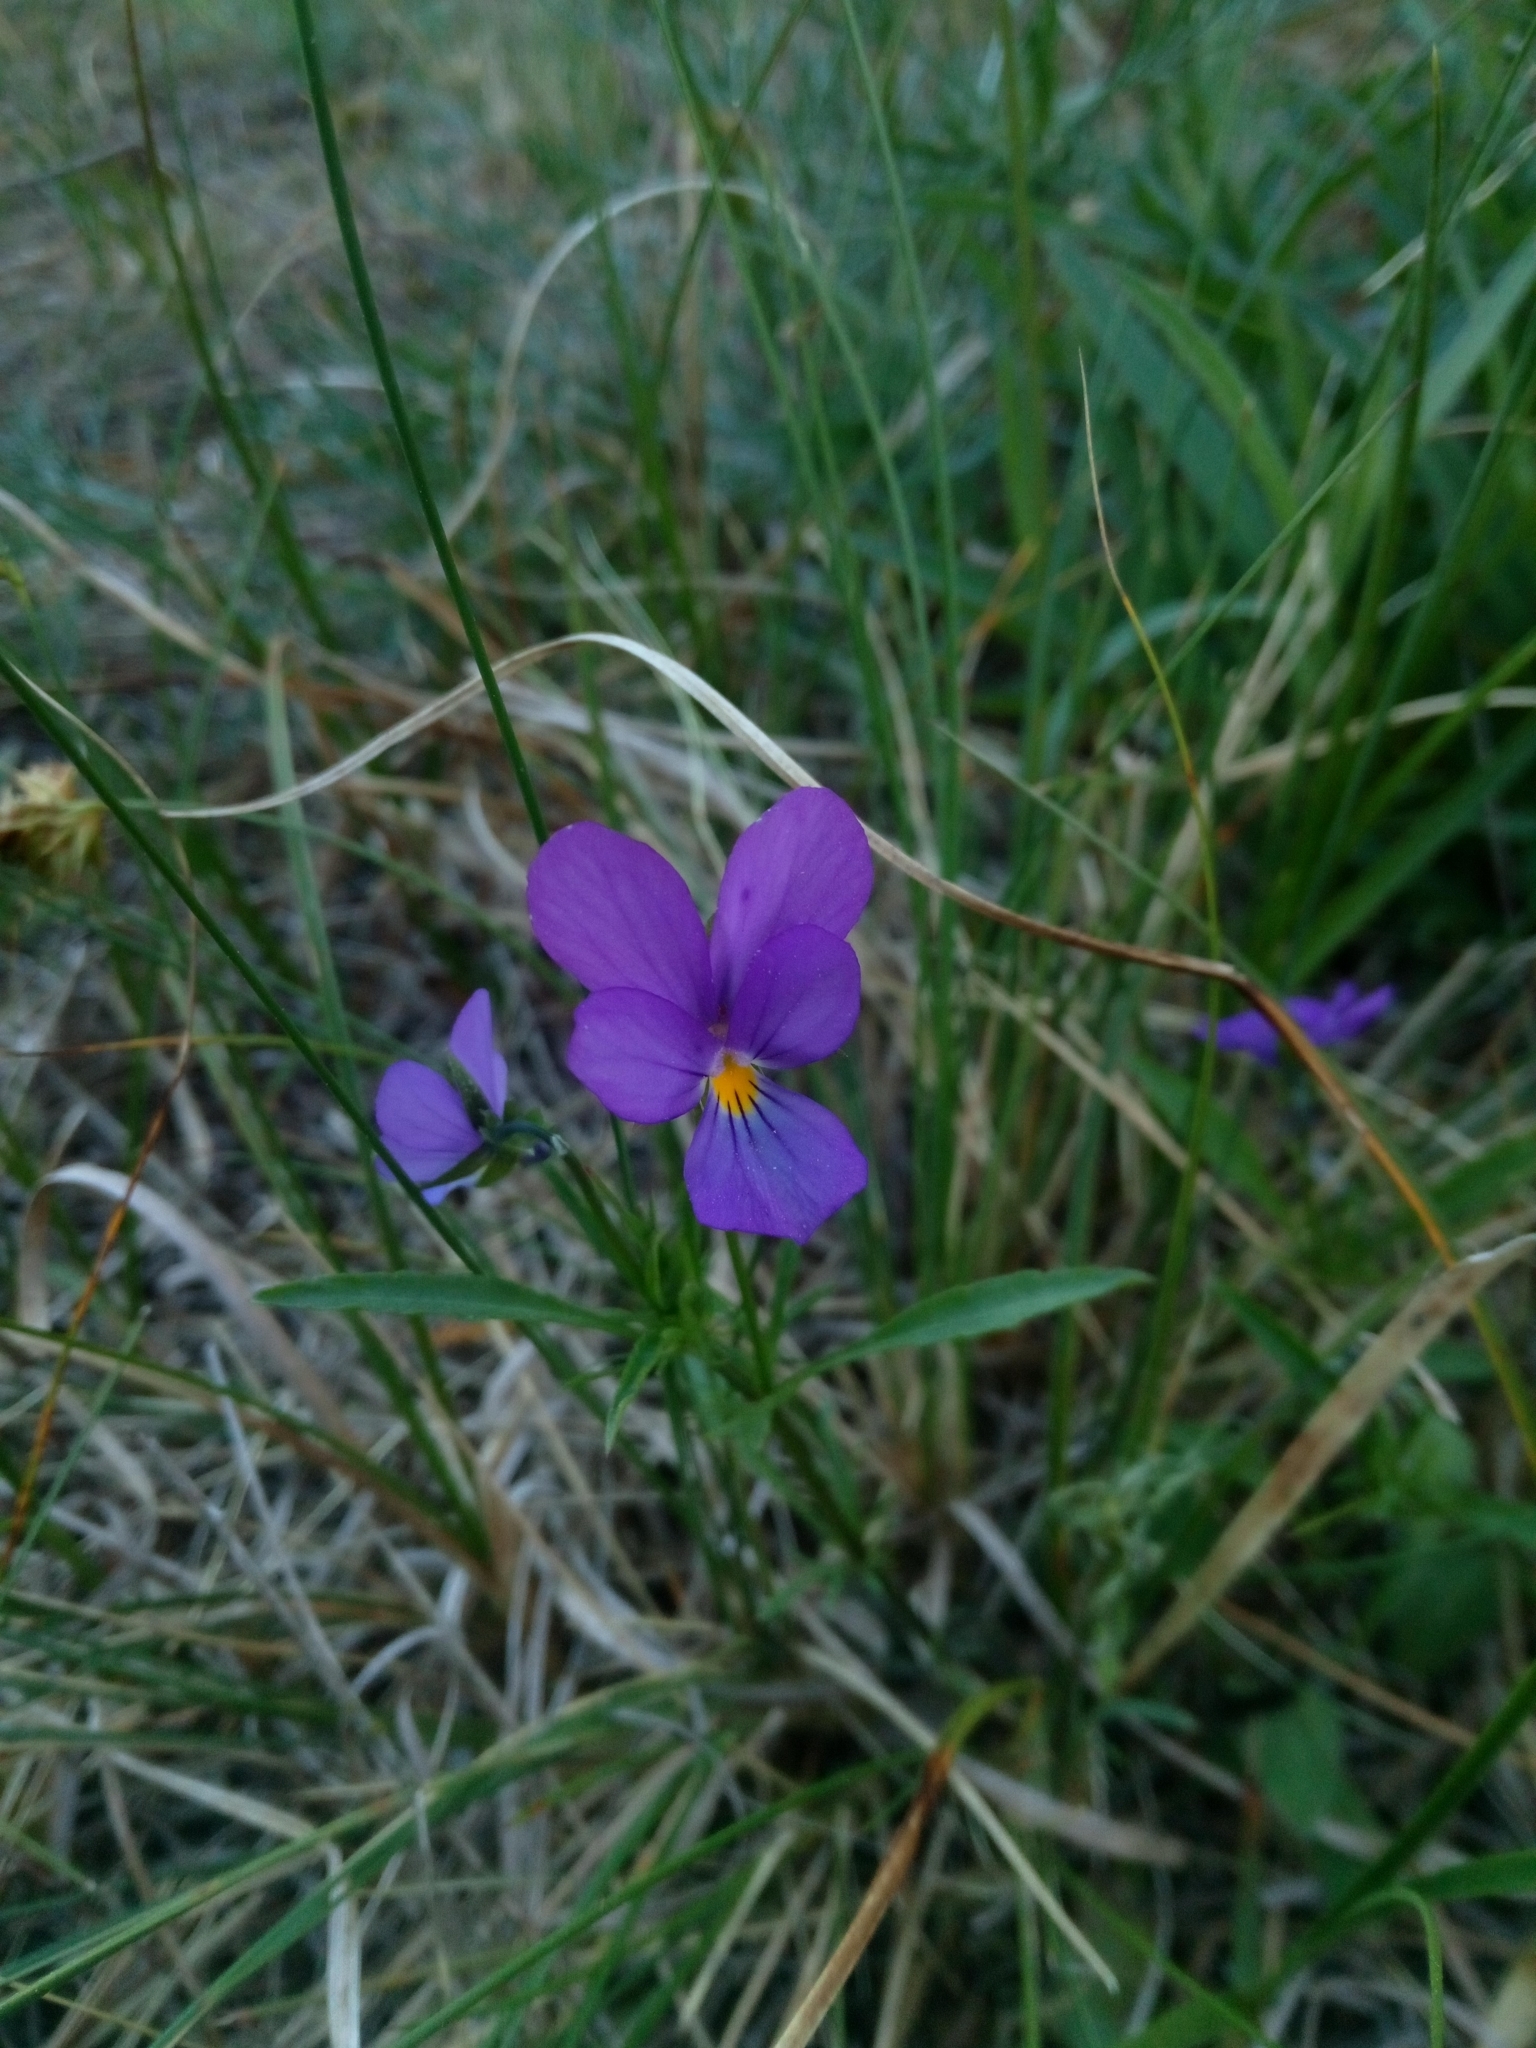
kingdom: Plantae
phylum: Tracheophyta
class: Magnoliopsida
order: Malpighiales
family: Violaceae
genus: Viola
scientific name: Viola tricolor
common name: Pansy
